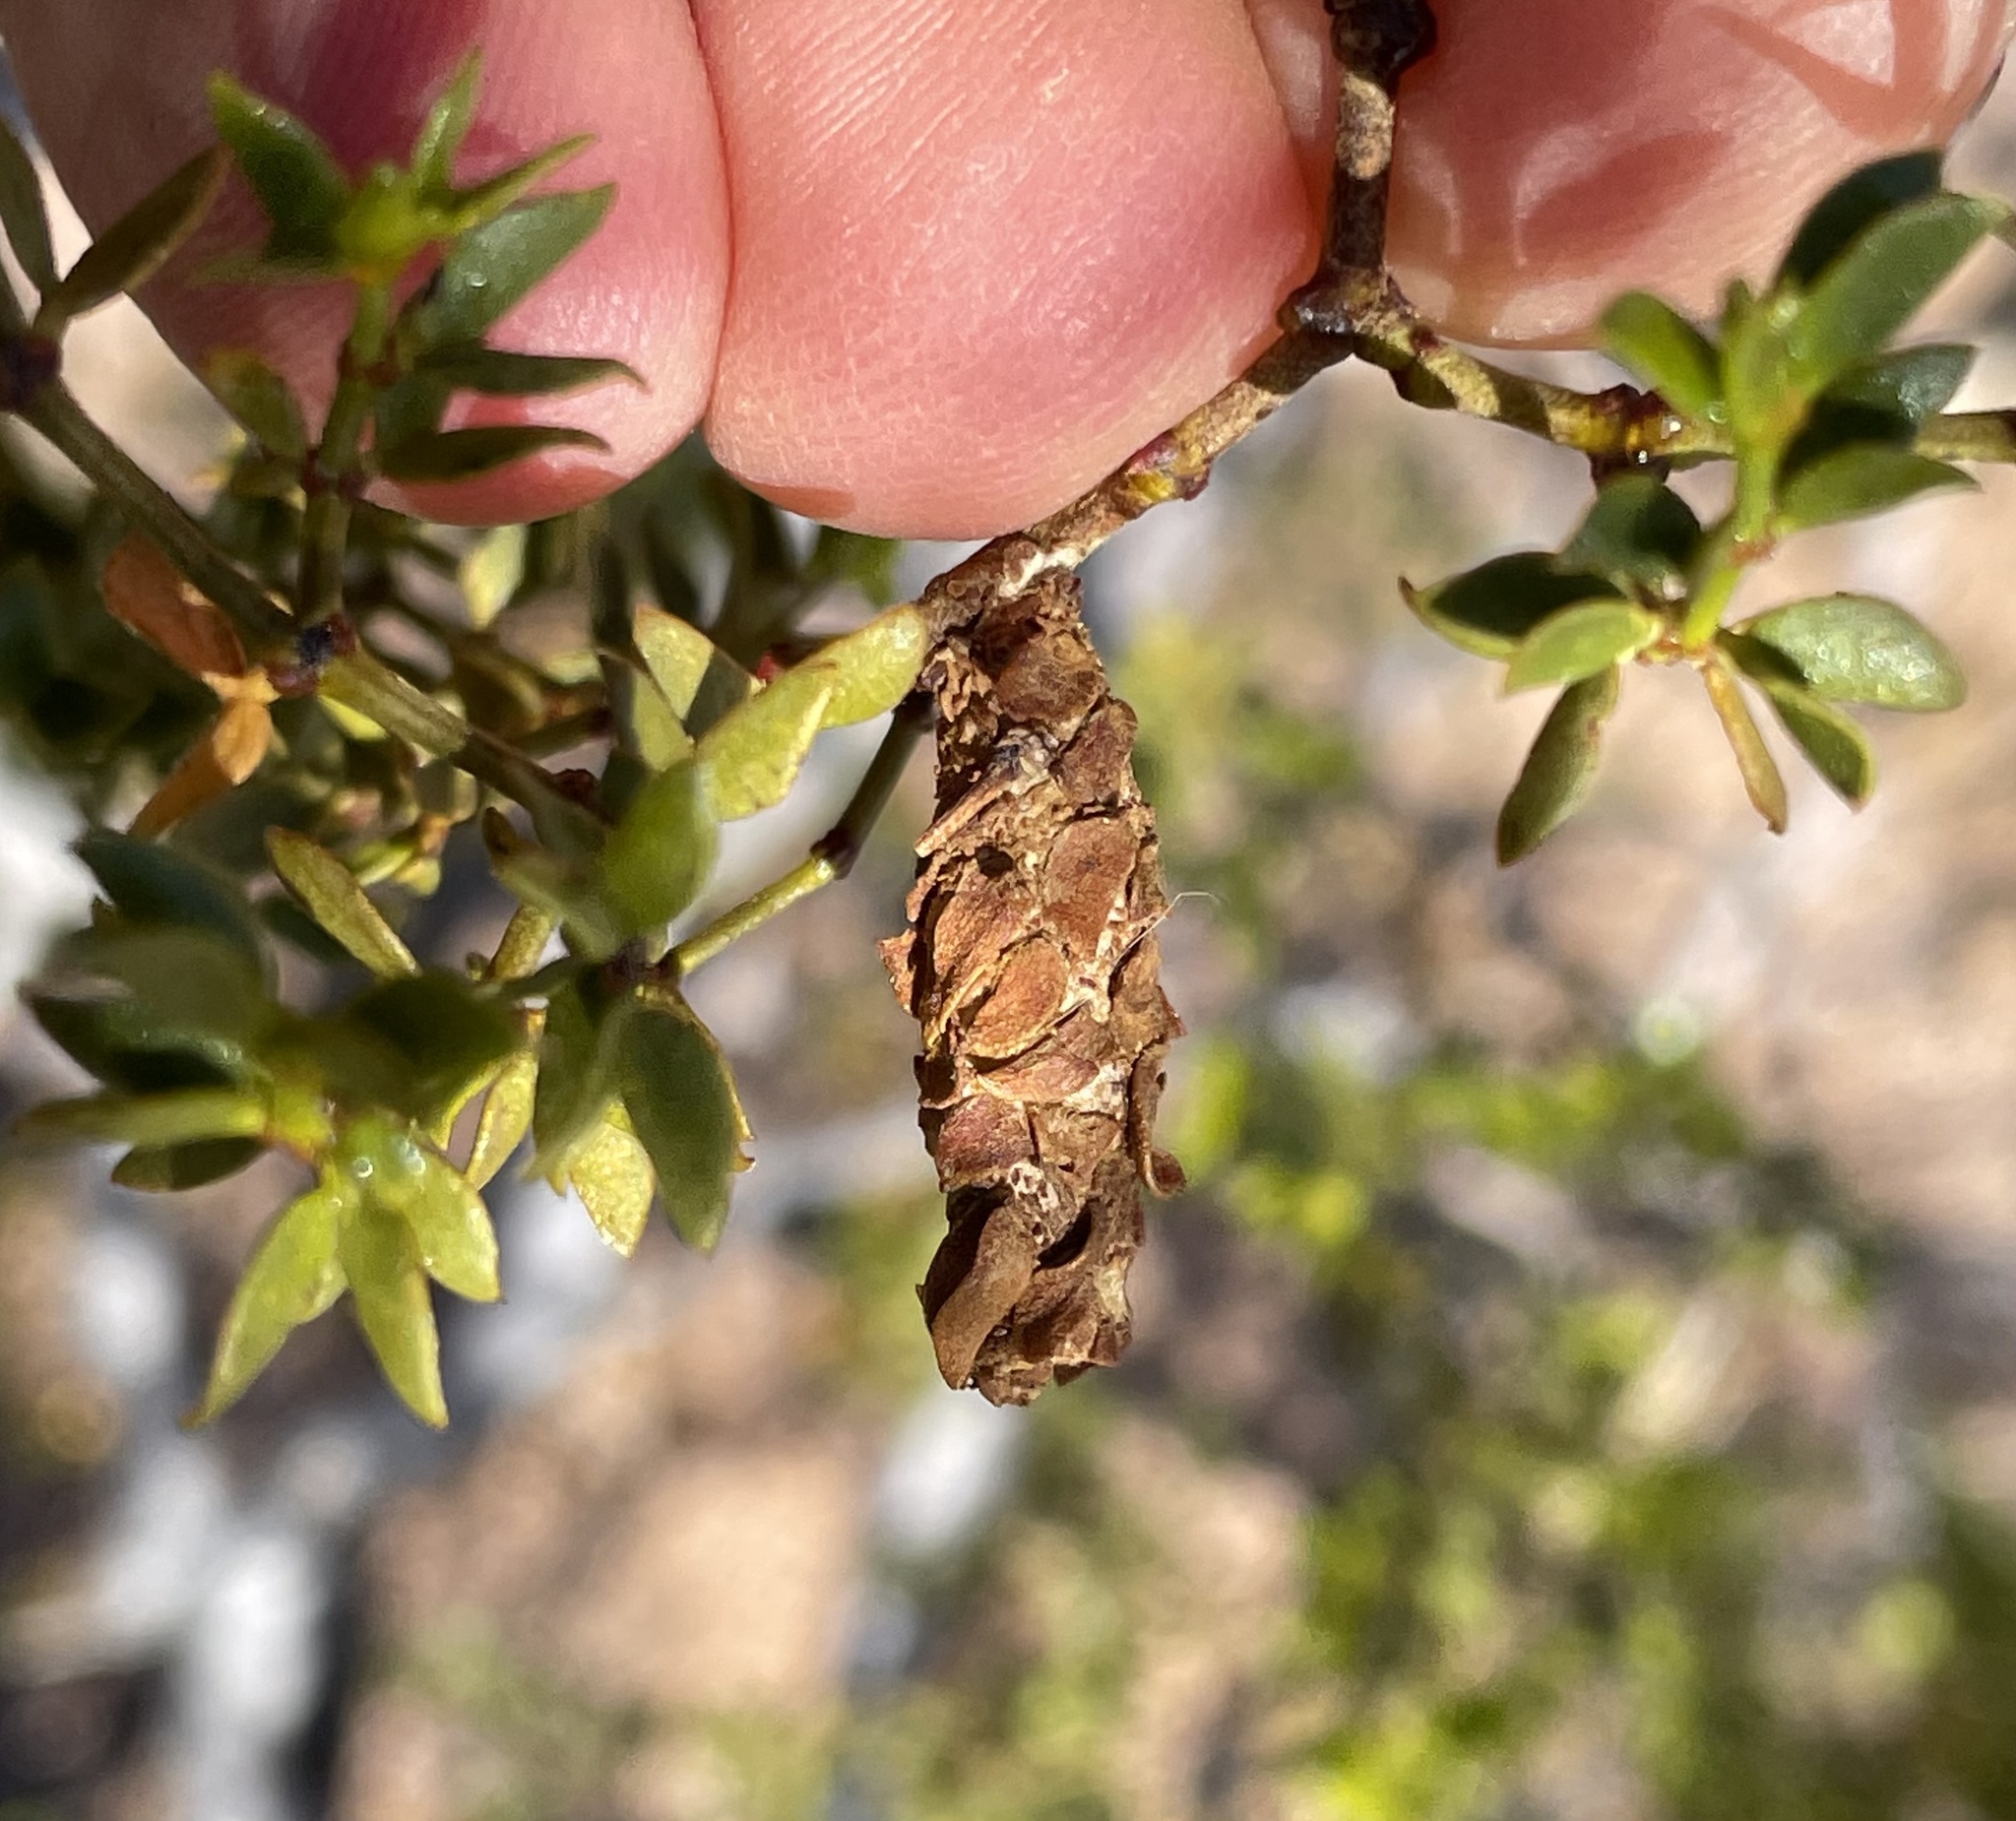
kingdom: Animalia
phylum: Arthropoda
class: Insecta
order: Lepidoptera
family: Psychidae
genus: Thyridopteryx
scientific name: Thyridopteryx meadii
